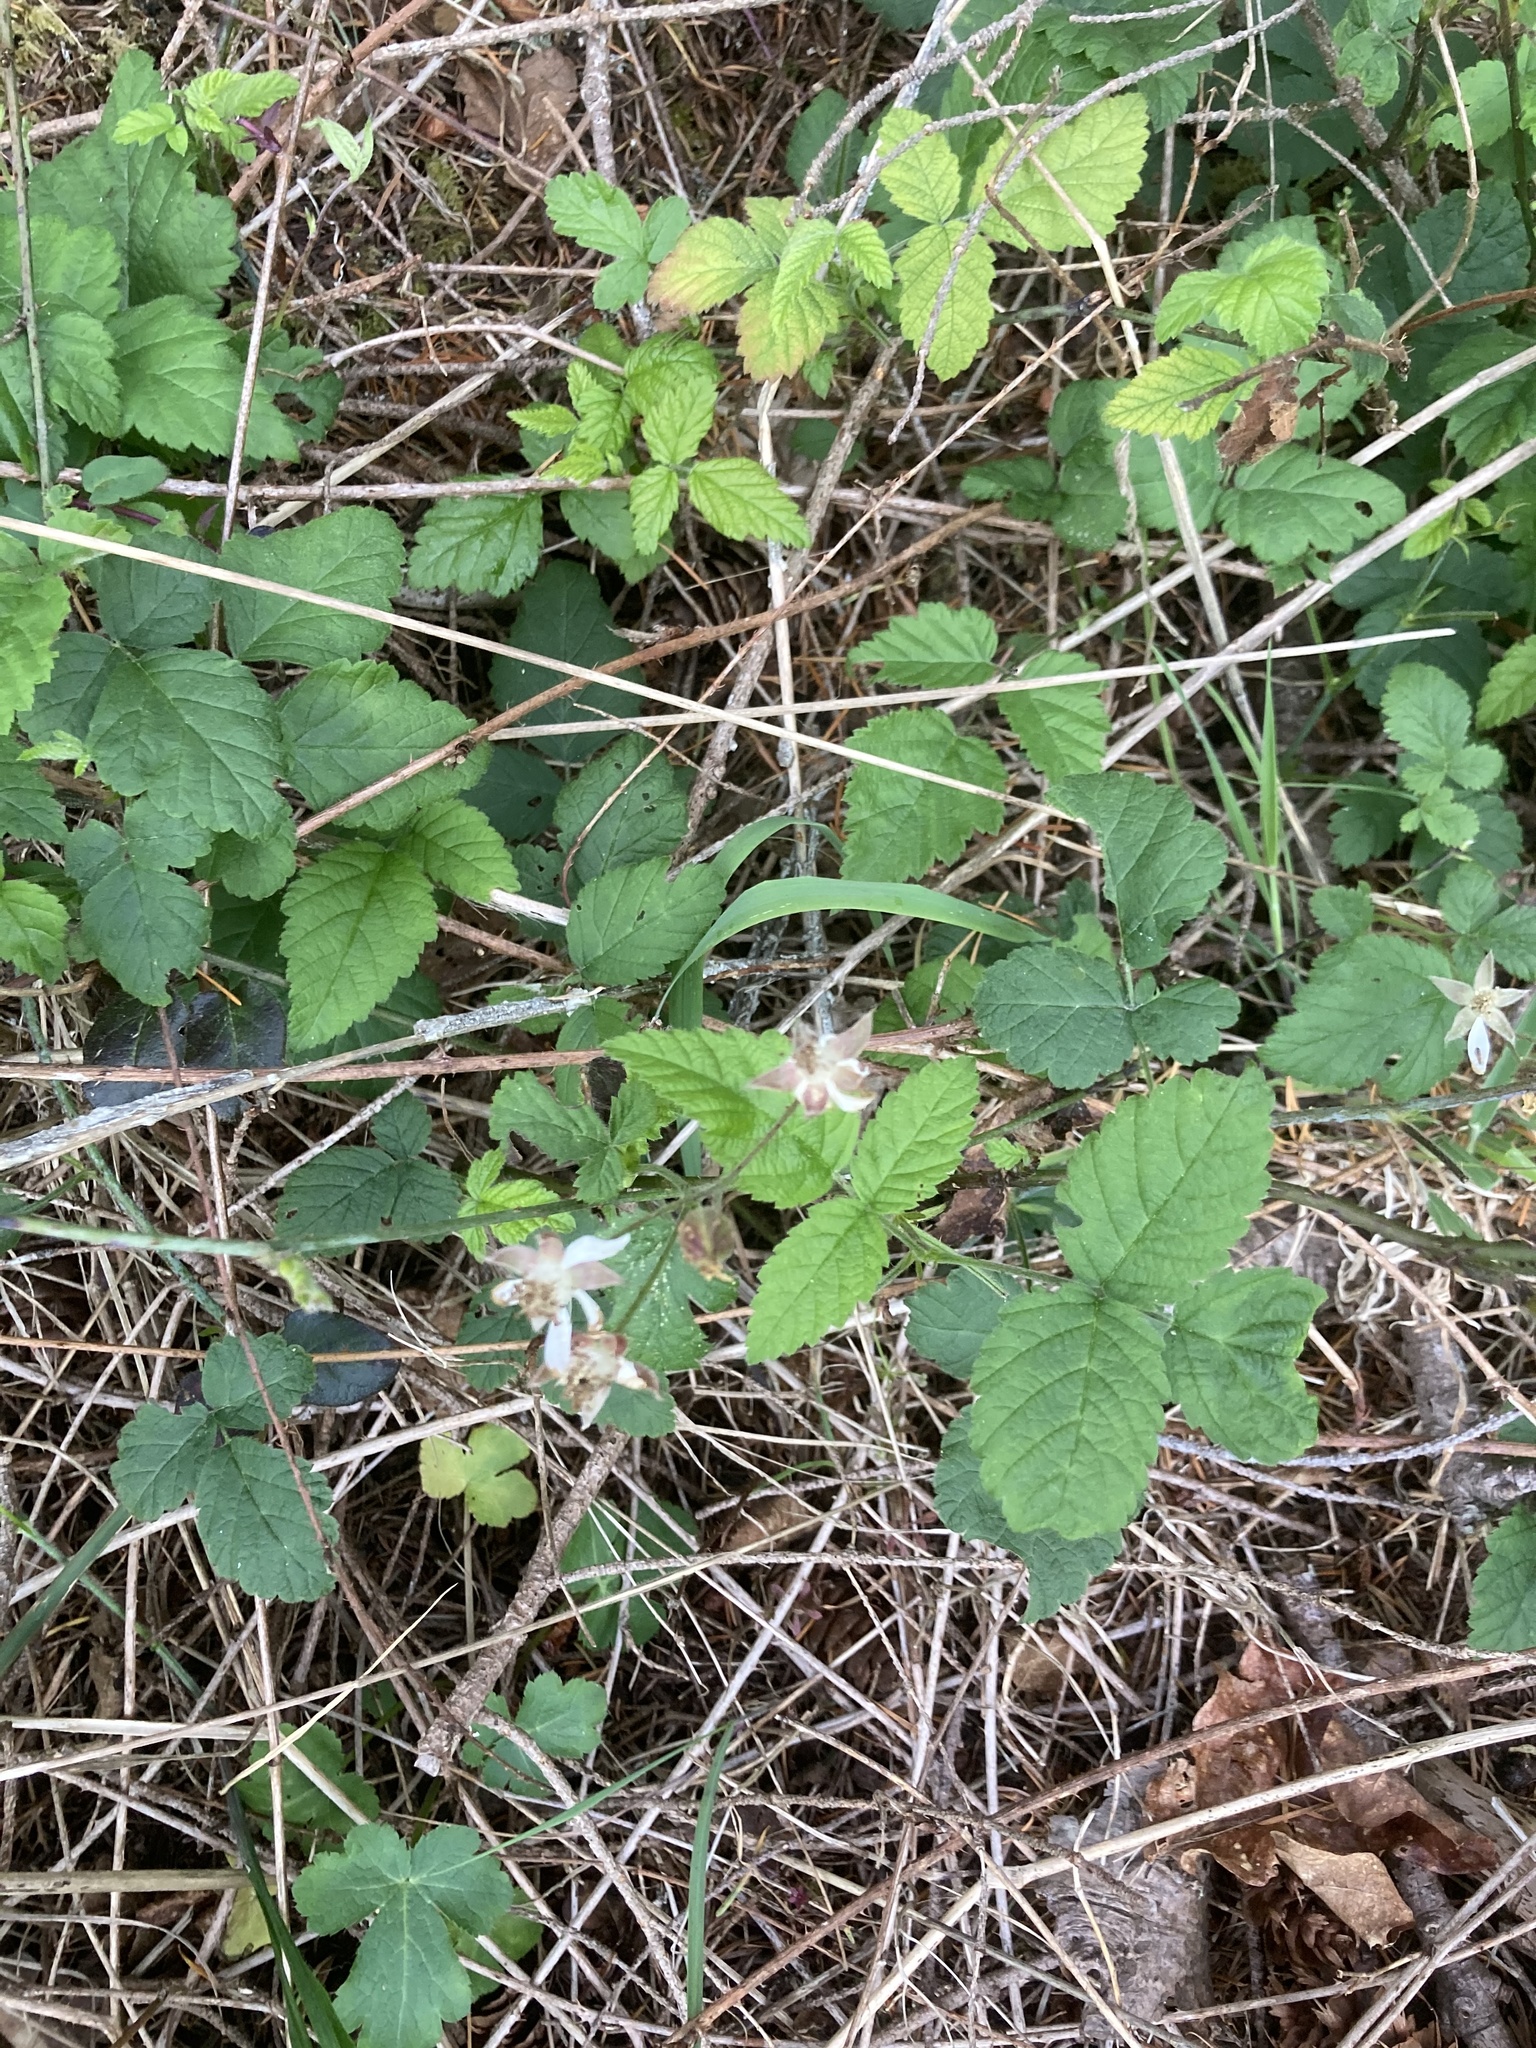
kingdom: Plantae
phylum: Tracheophyta
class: Magnoliopsida
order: Rosales
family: Rosaceae
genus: Rubus
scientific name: Rubus ursinus
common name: Pacific blackberry
